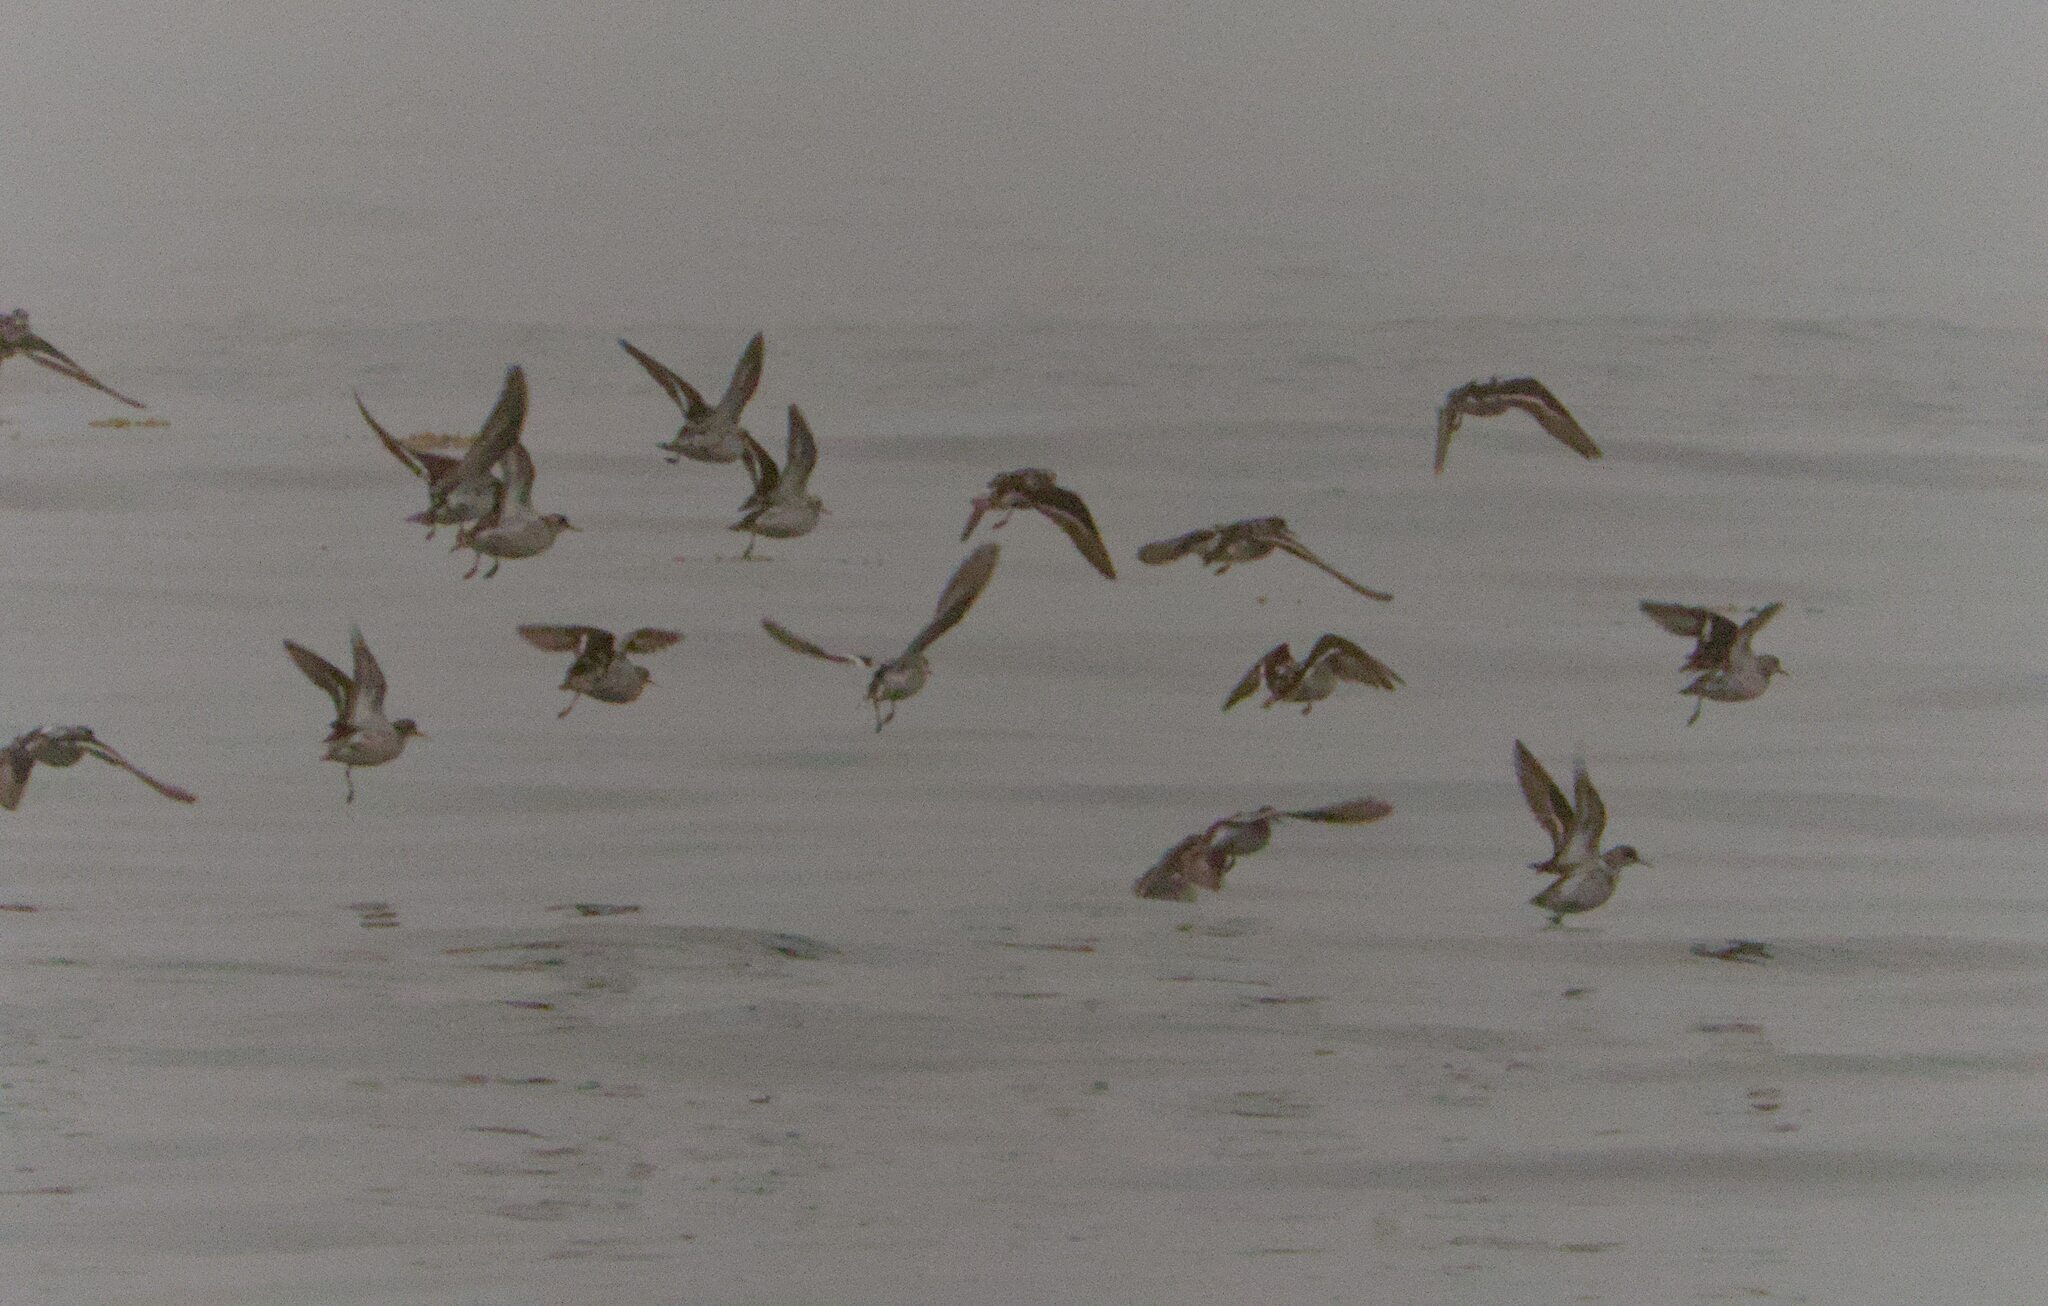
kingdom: Animalia
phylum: Chordata
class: Aves
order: Charadriiformes
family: Scolopacidae
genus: Phalaropus
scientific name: Phalaropus lobatus
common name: Red-necked phalarope
